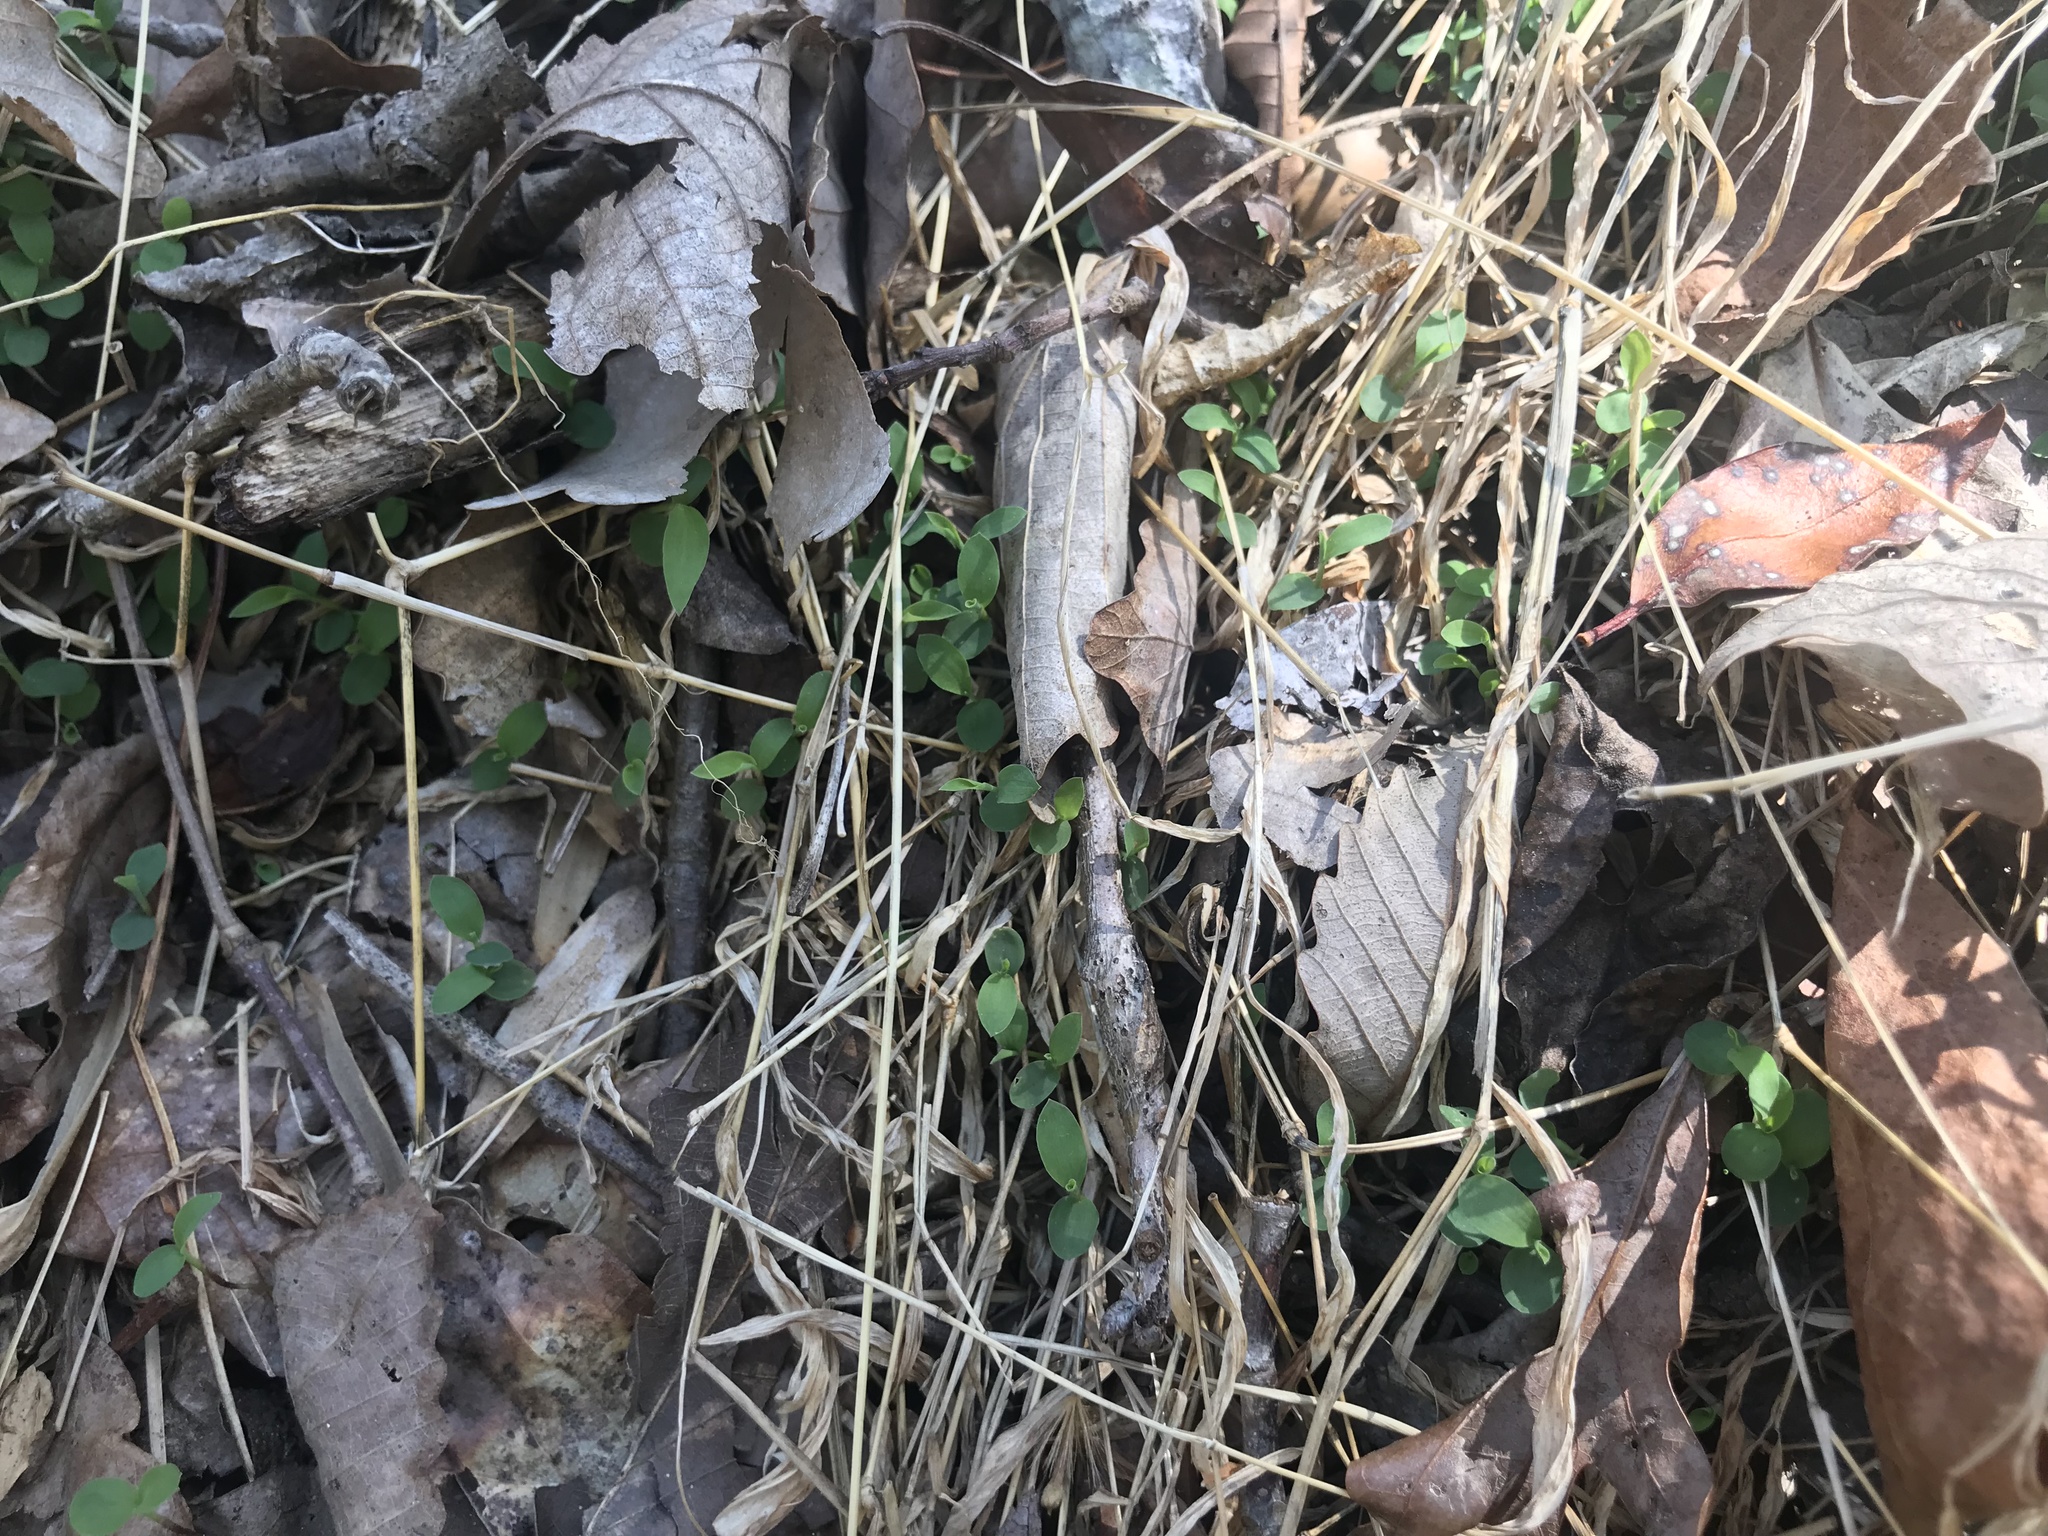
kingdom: Plantae
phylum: Tracheophyta
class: Liliopsida
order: Poales
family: Poaceae
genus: Microstegium
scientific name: Microstegium vimineum
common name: Japanese stiltgrass
